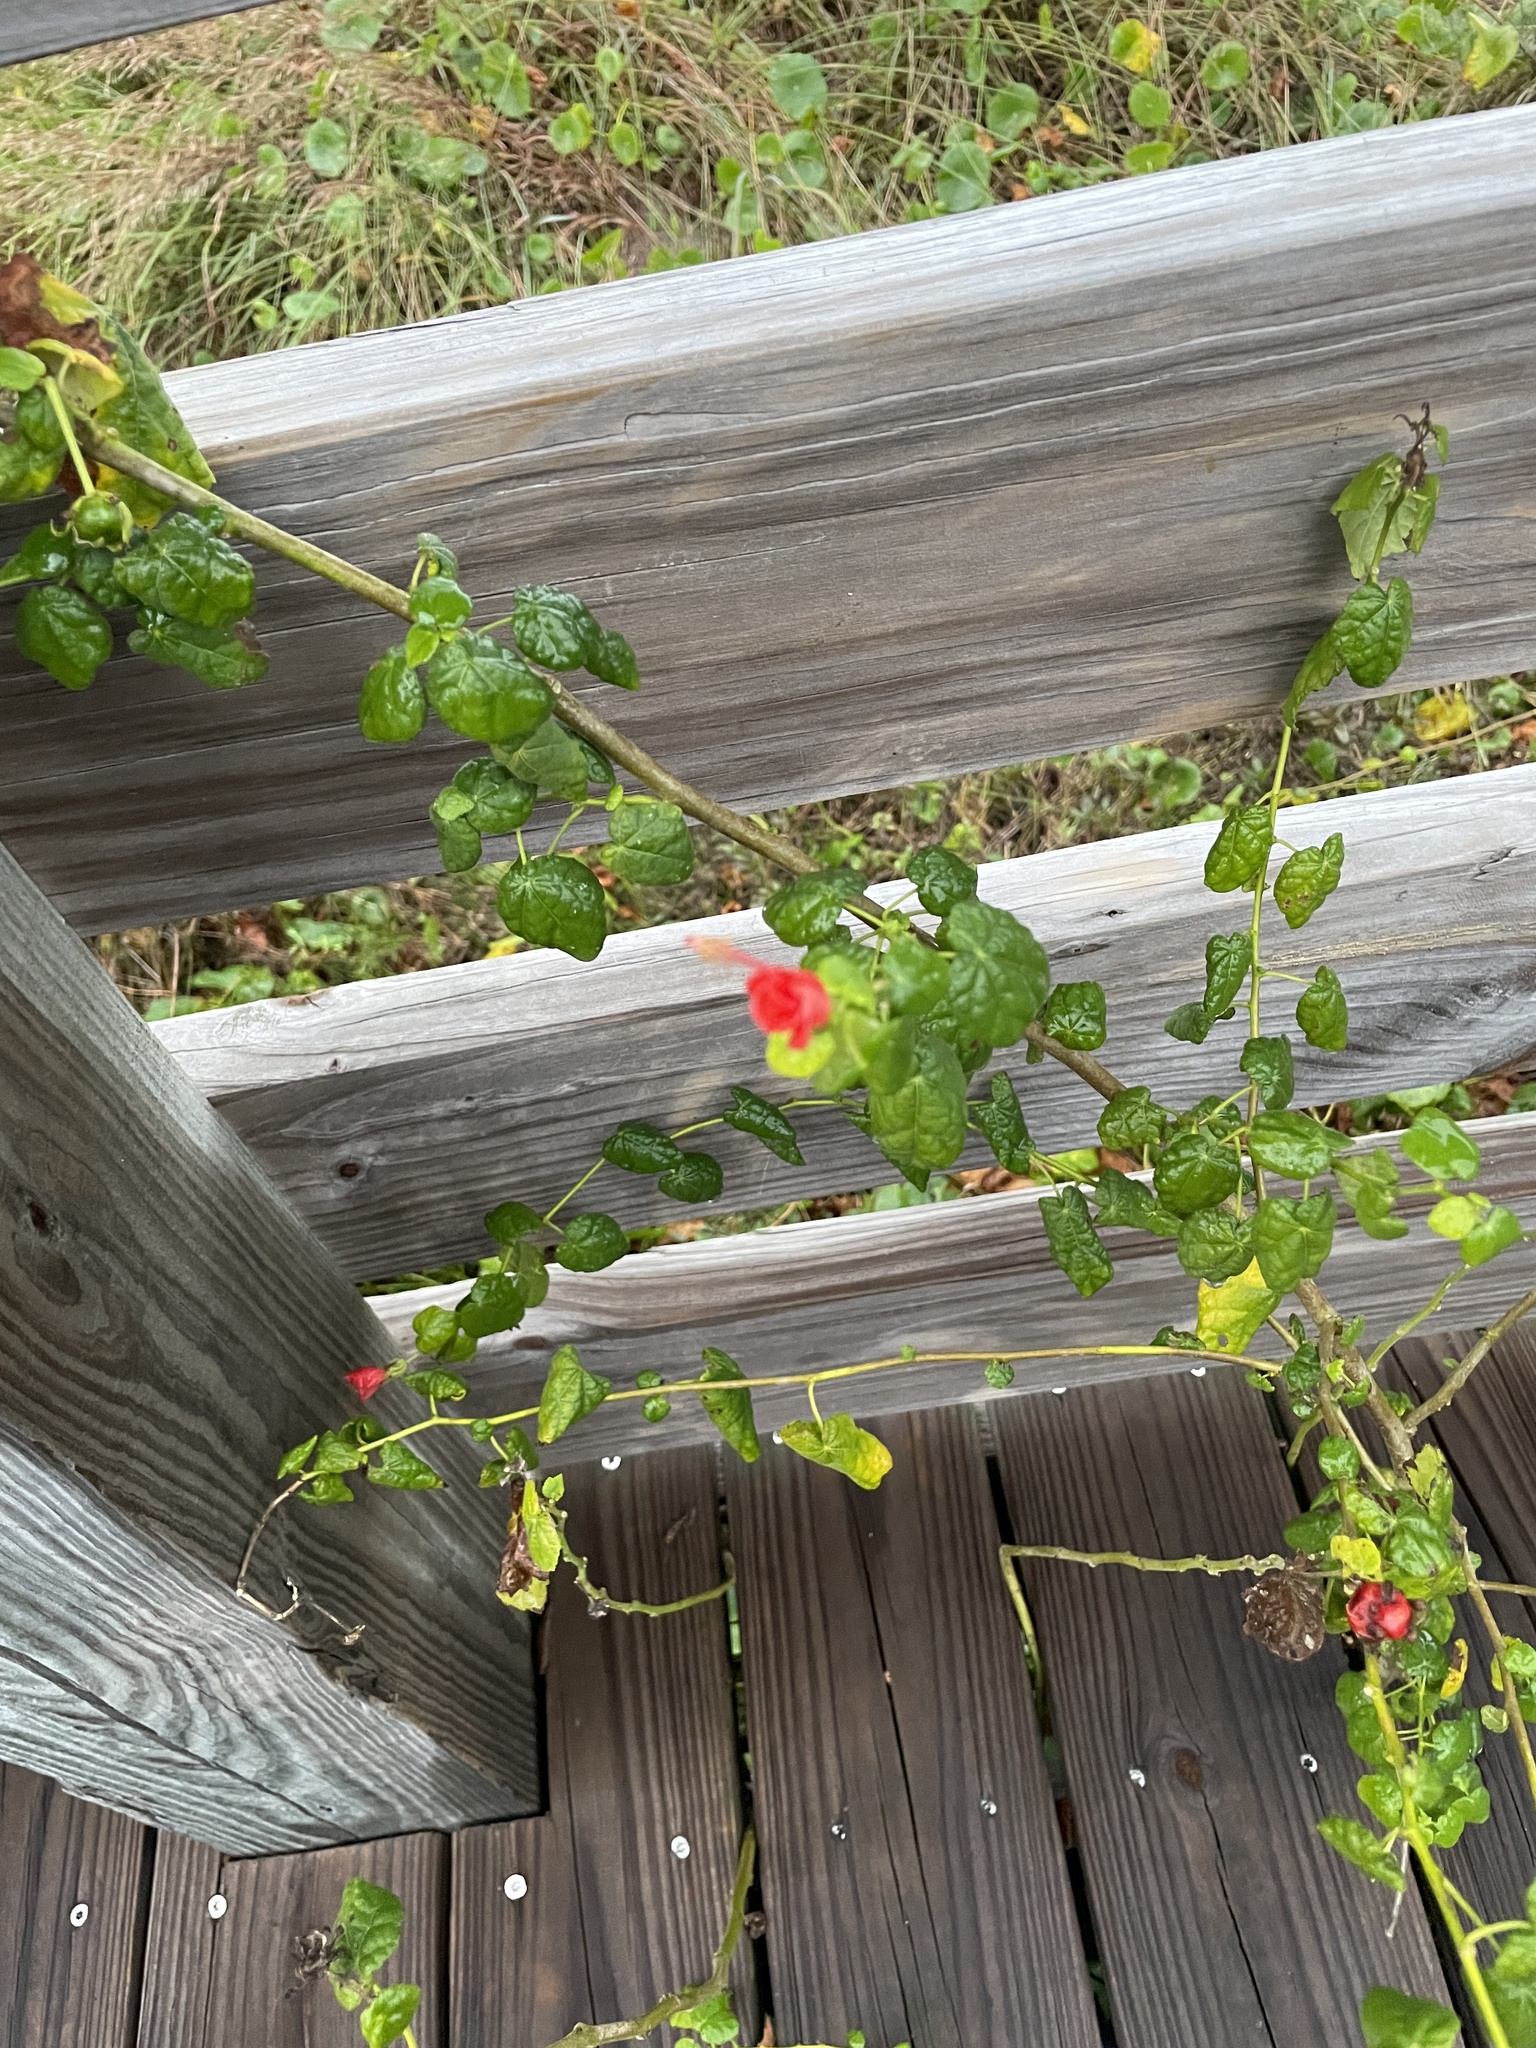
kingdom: Plantae
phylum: Tracheophyta
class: Magnoliopsida
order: Malvales
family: Malvaceae
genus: Malvaviscus
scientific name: Malvaviscus arboreus
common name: Wax mallow
